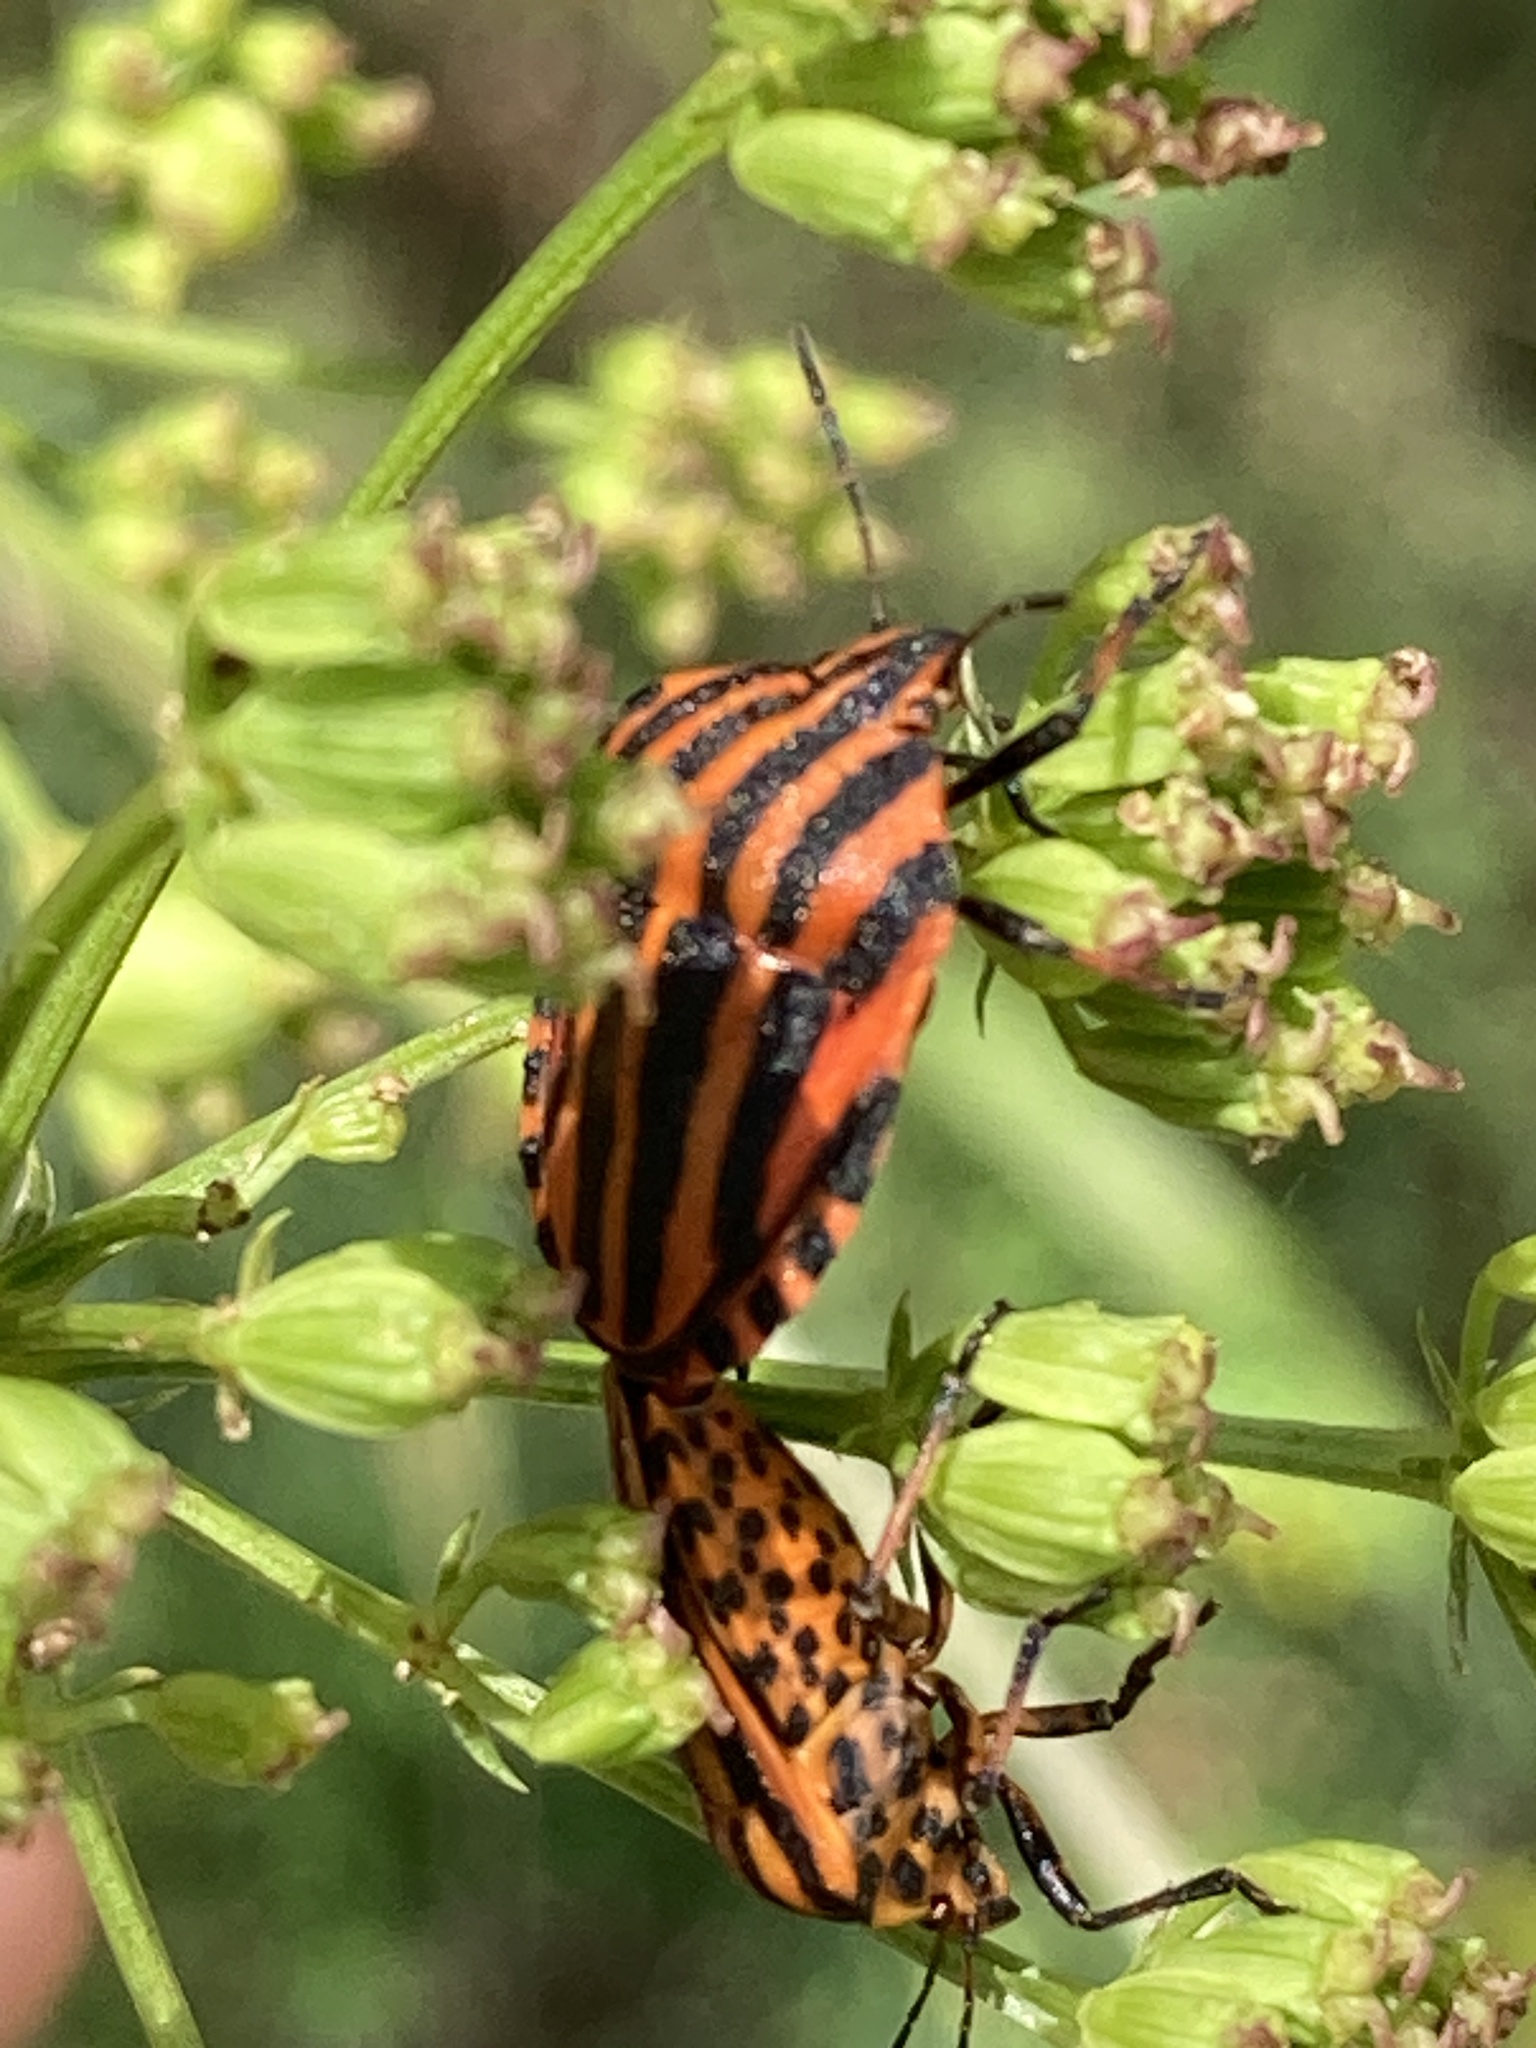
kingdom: Animalia
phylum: Arthropoda
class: Insecta
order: Hemiptera
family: Pentatomidae
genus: Graphosoma
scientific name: Graphosoma italicum
